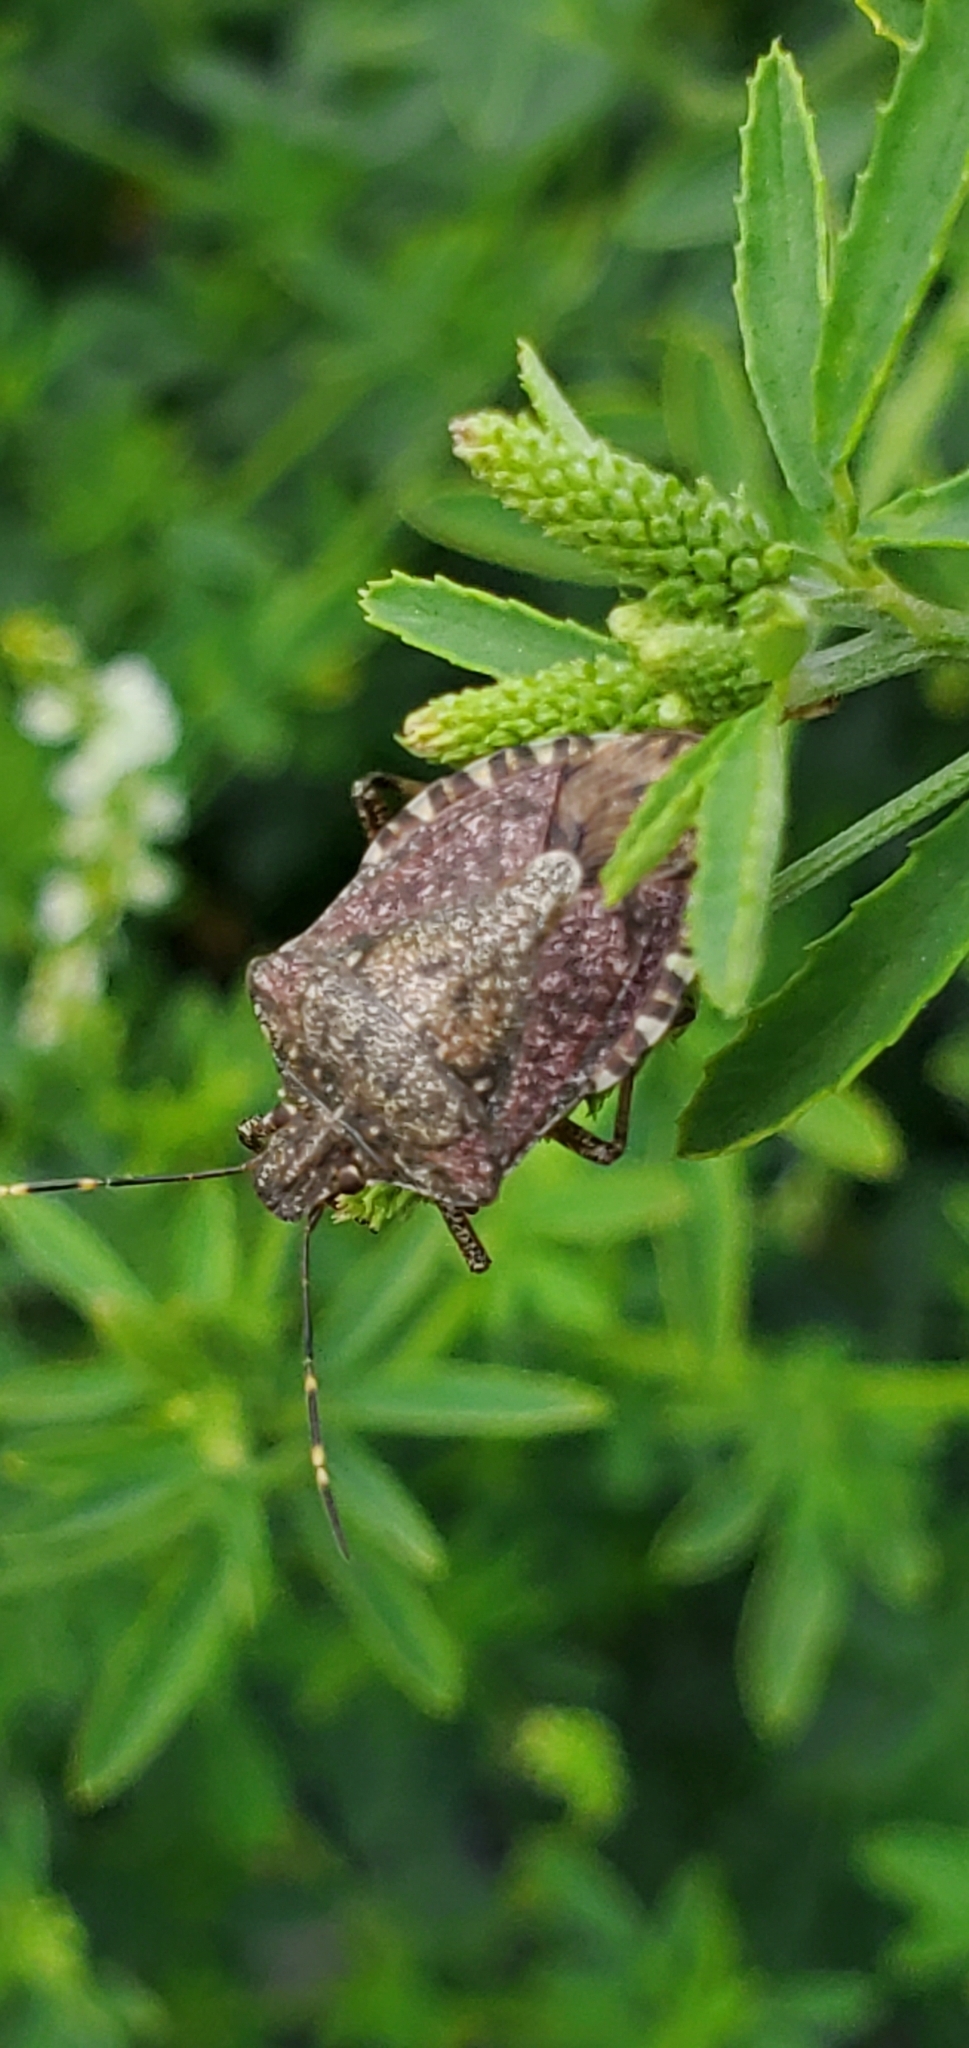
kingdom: Animalia
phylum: Arthropoda
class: Insecta
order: Hemiptera
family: Pentatomidae
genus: Halyomorpha
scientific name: Halyomorpha halys
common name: Brown marmorated stink bug
